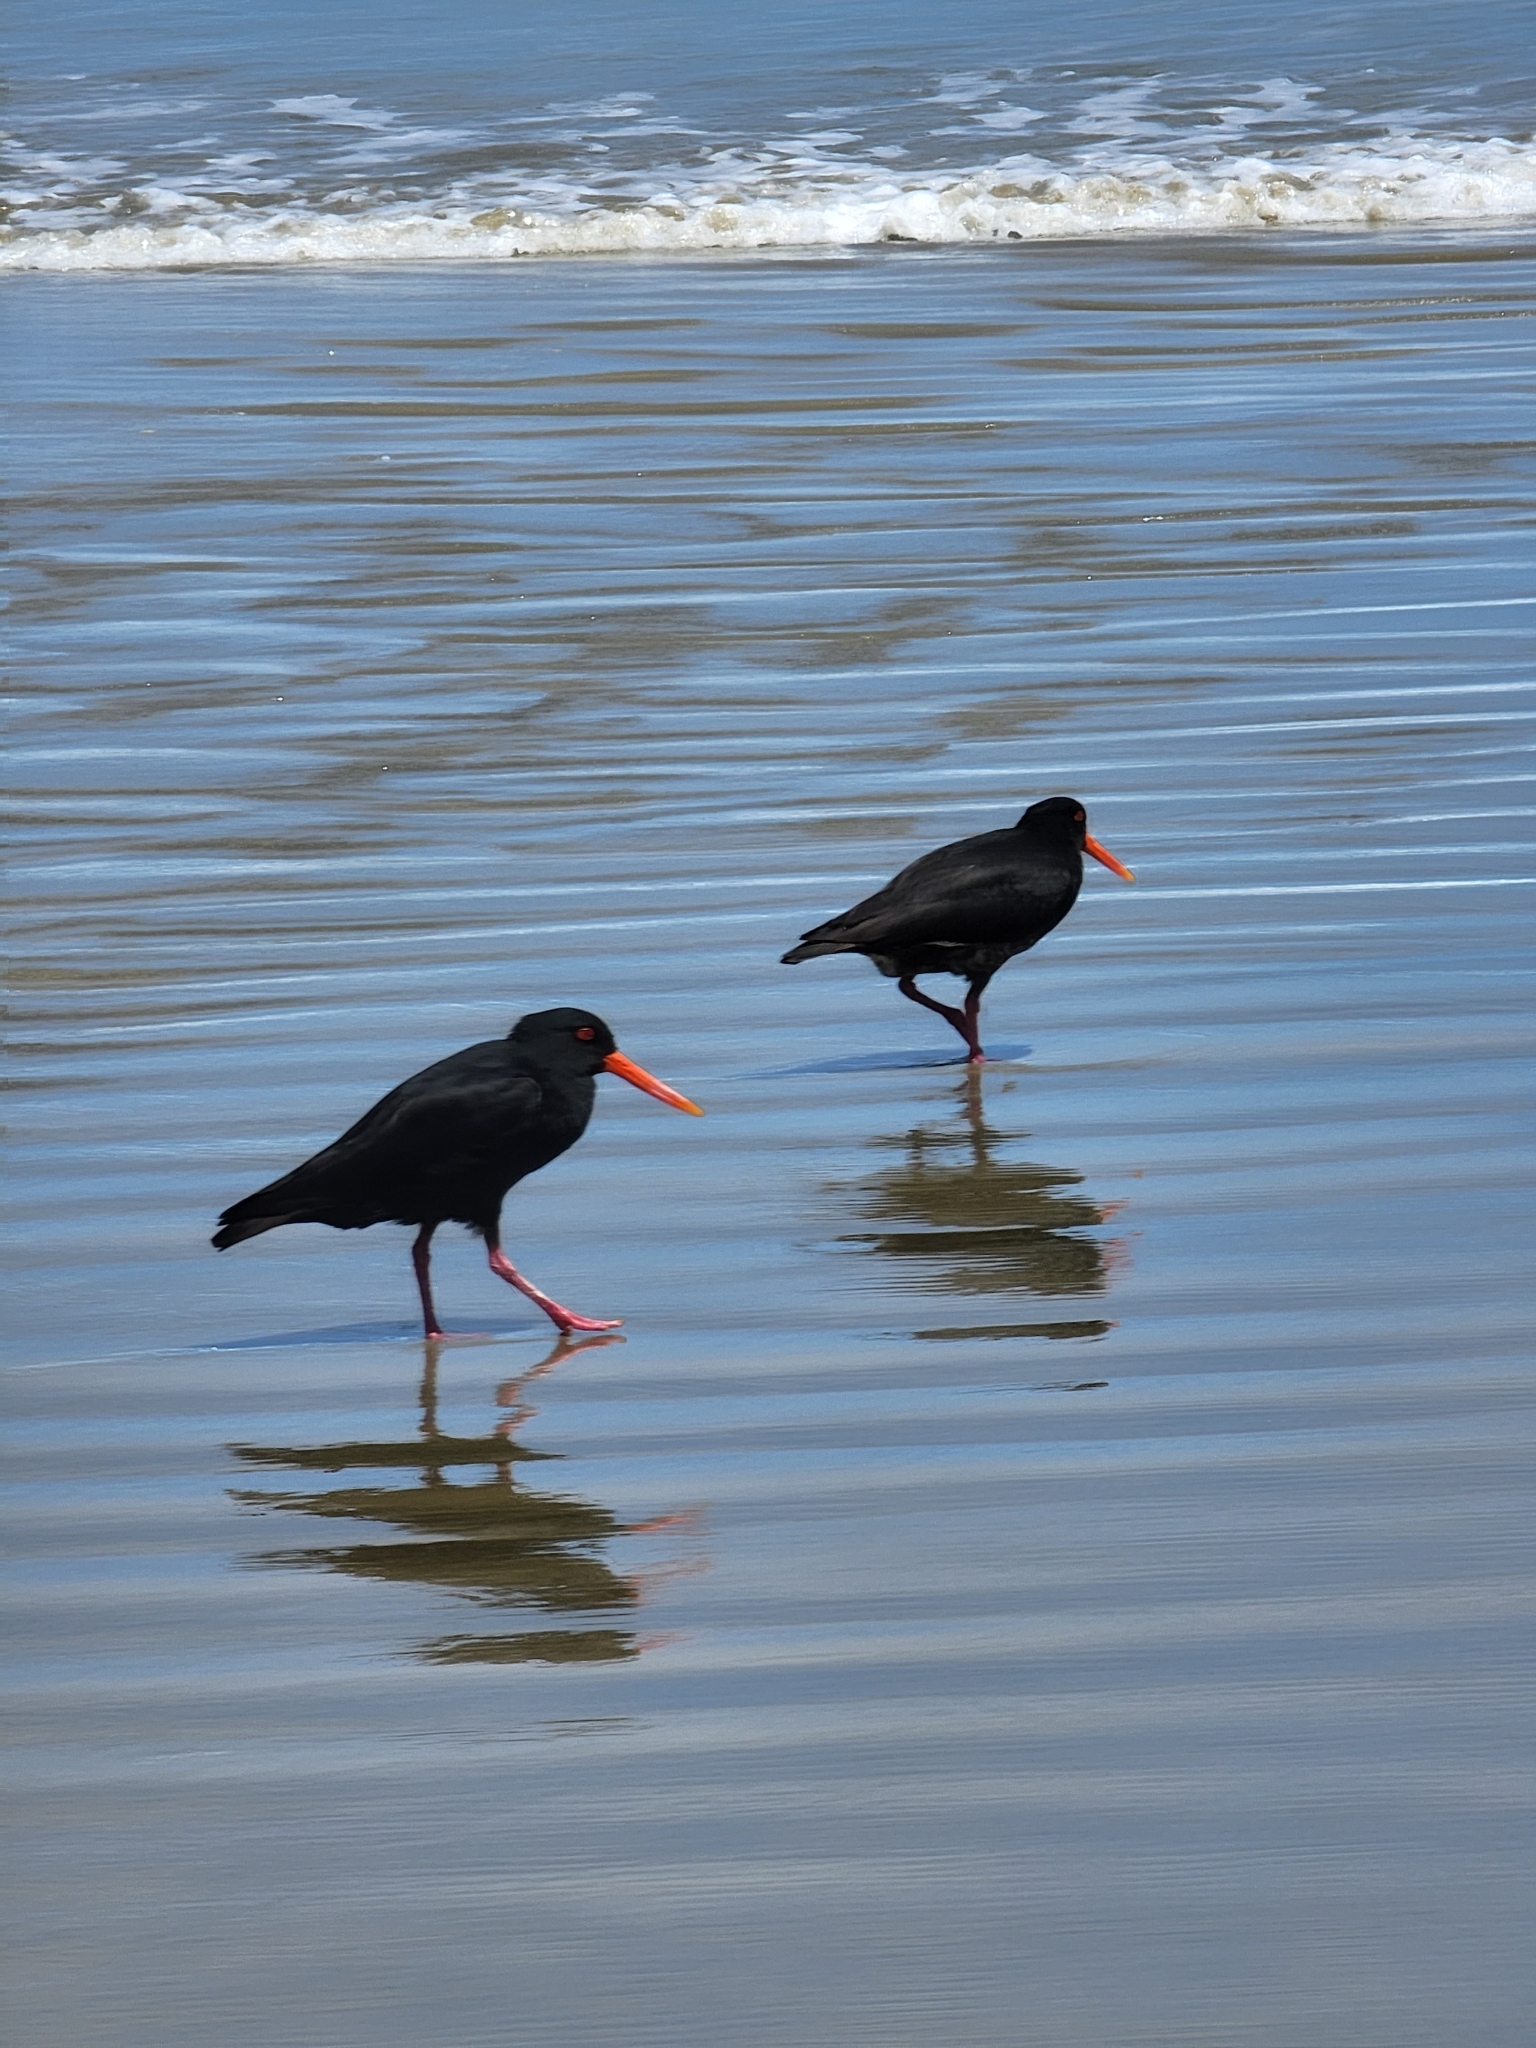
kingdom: Animalia
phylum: Chordata
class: Aves
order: Charadriiformes
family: Haematopodidae
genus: Haematopus
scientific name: Haematopus unicolor
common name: Variable oystercatcher
